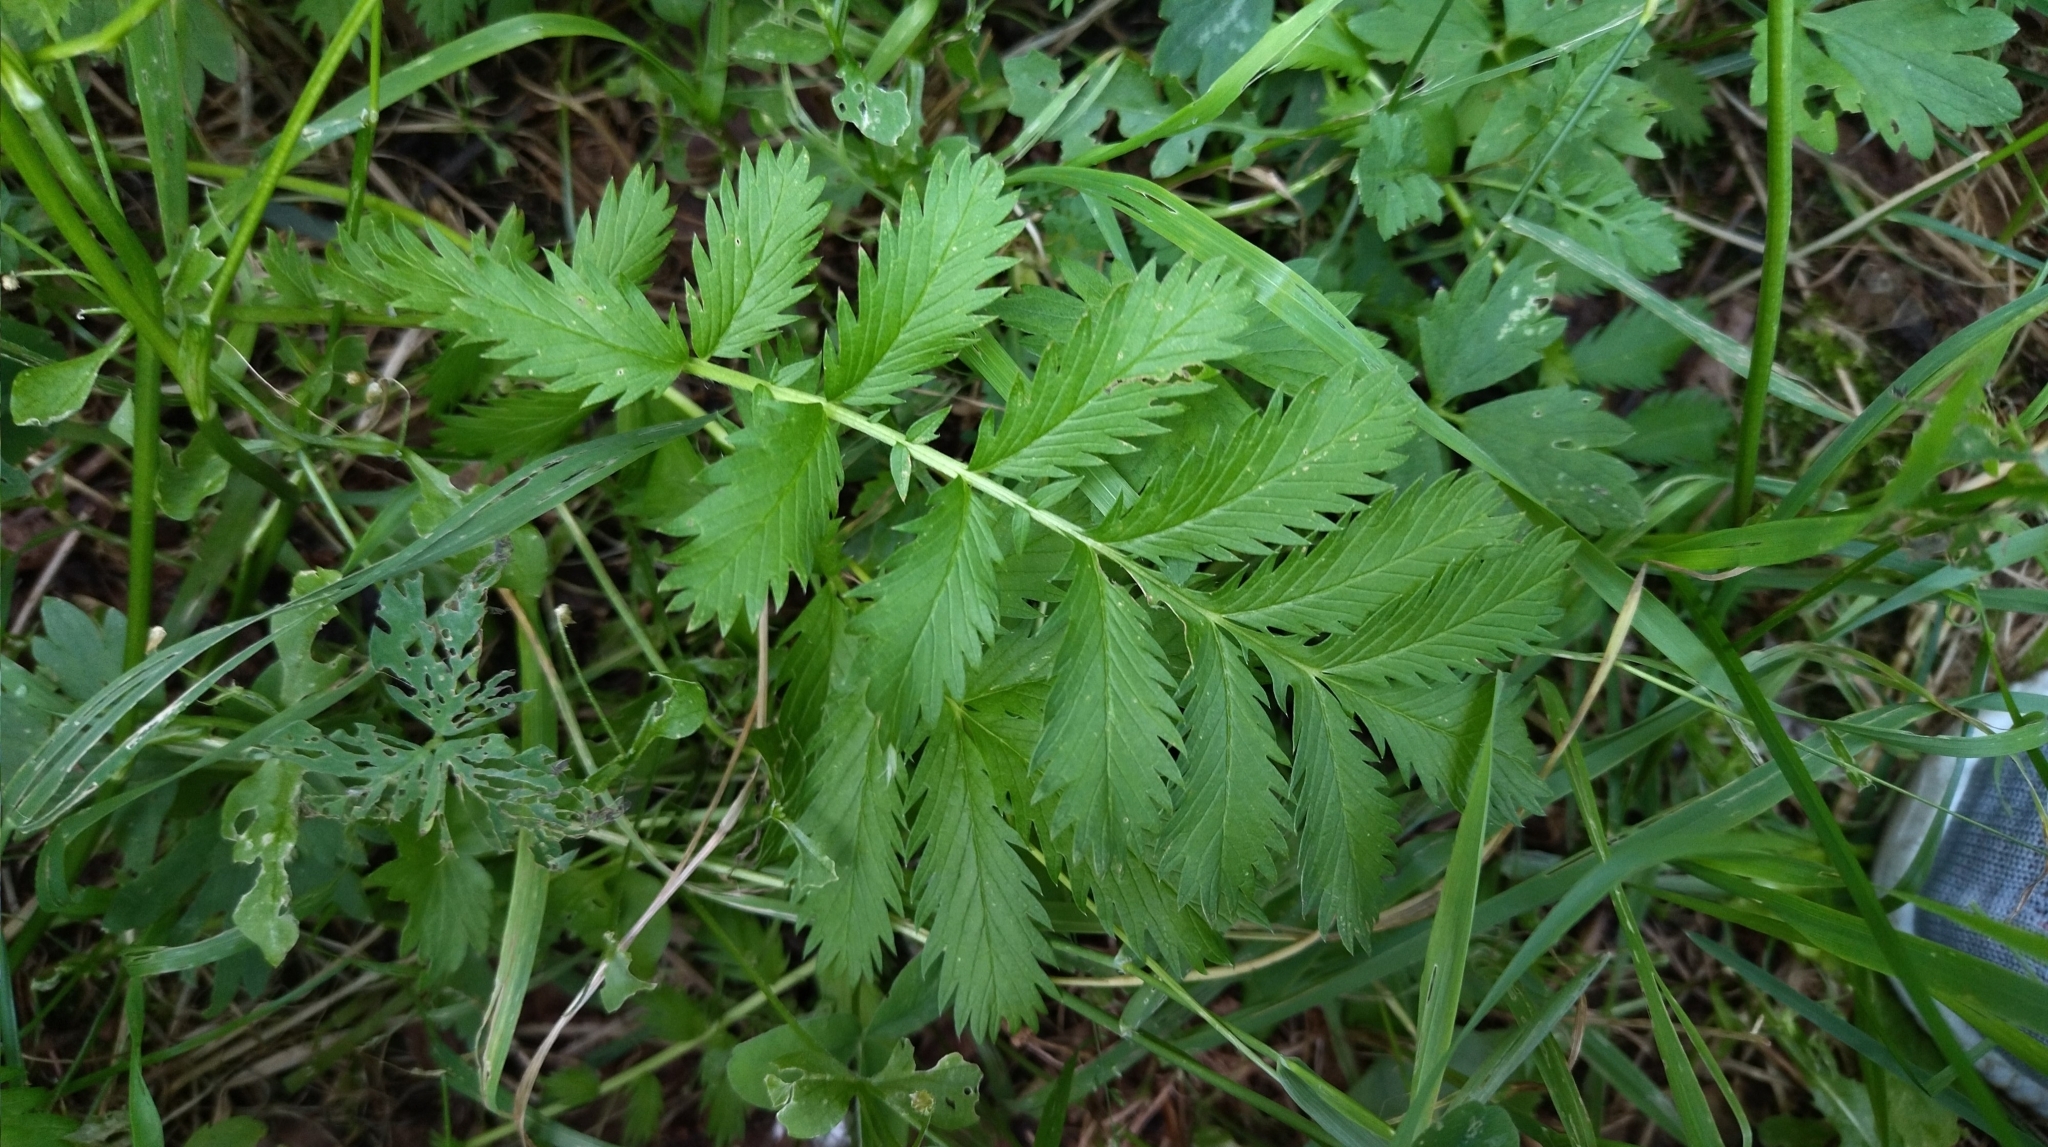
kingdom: Plantae
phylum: Tracheophyta
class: Magnoliopsida
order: Rosales
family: Rosaceae
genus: Argentina
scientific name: Argentina anserina
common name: Common silverweed
